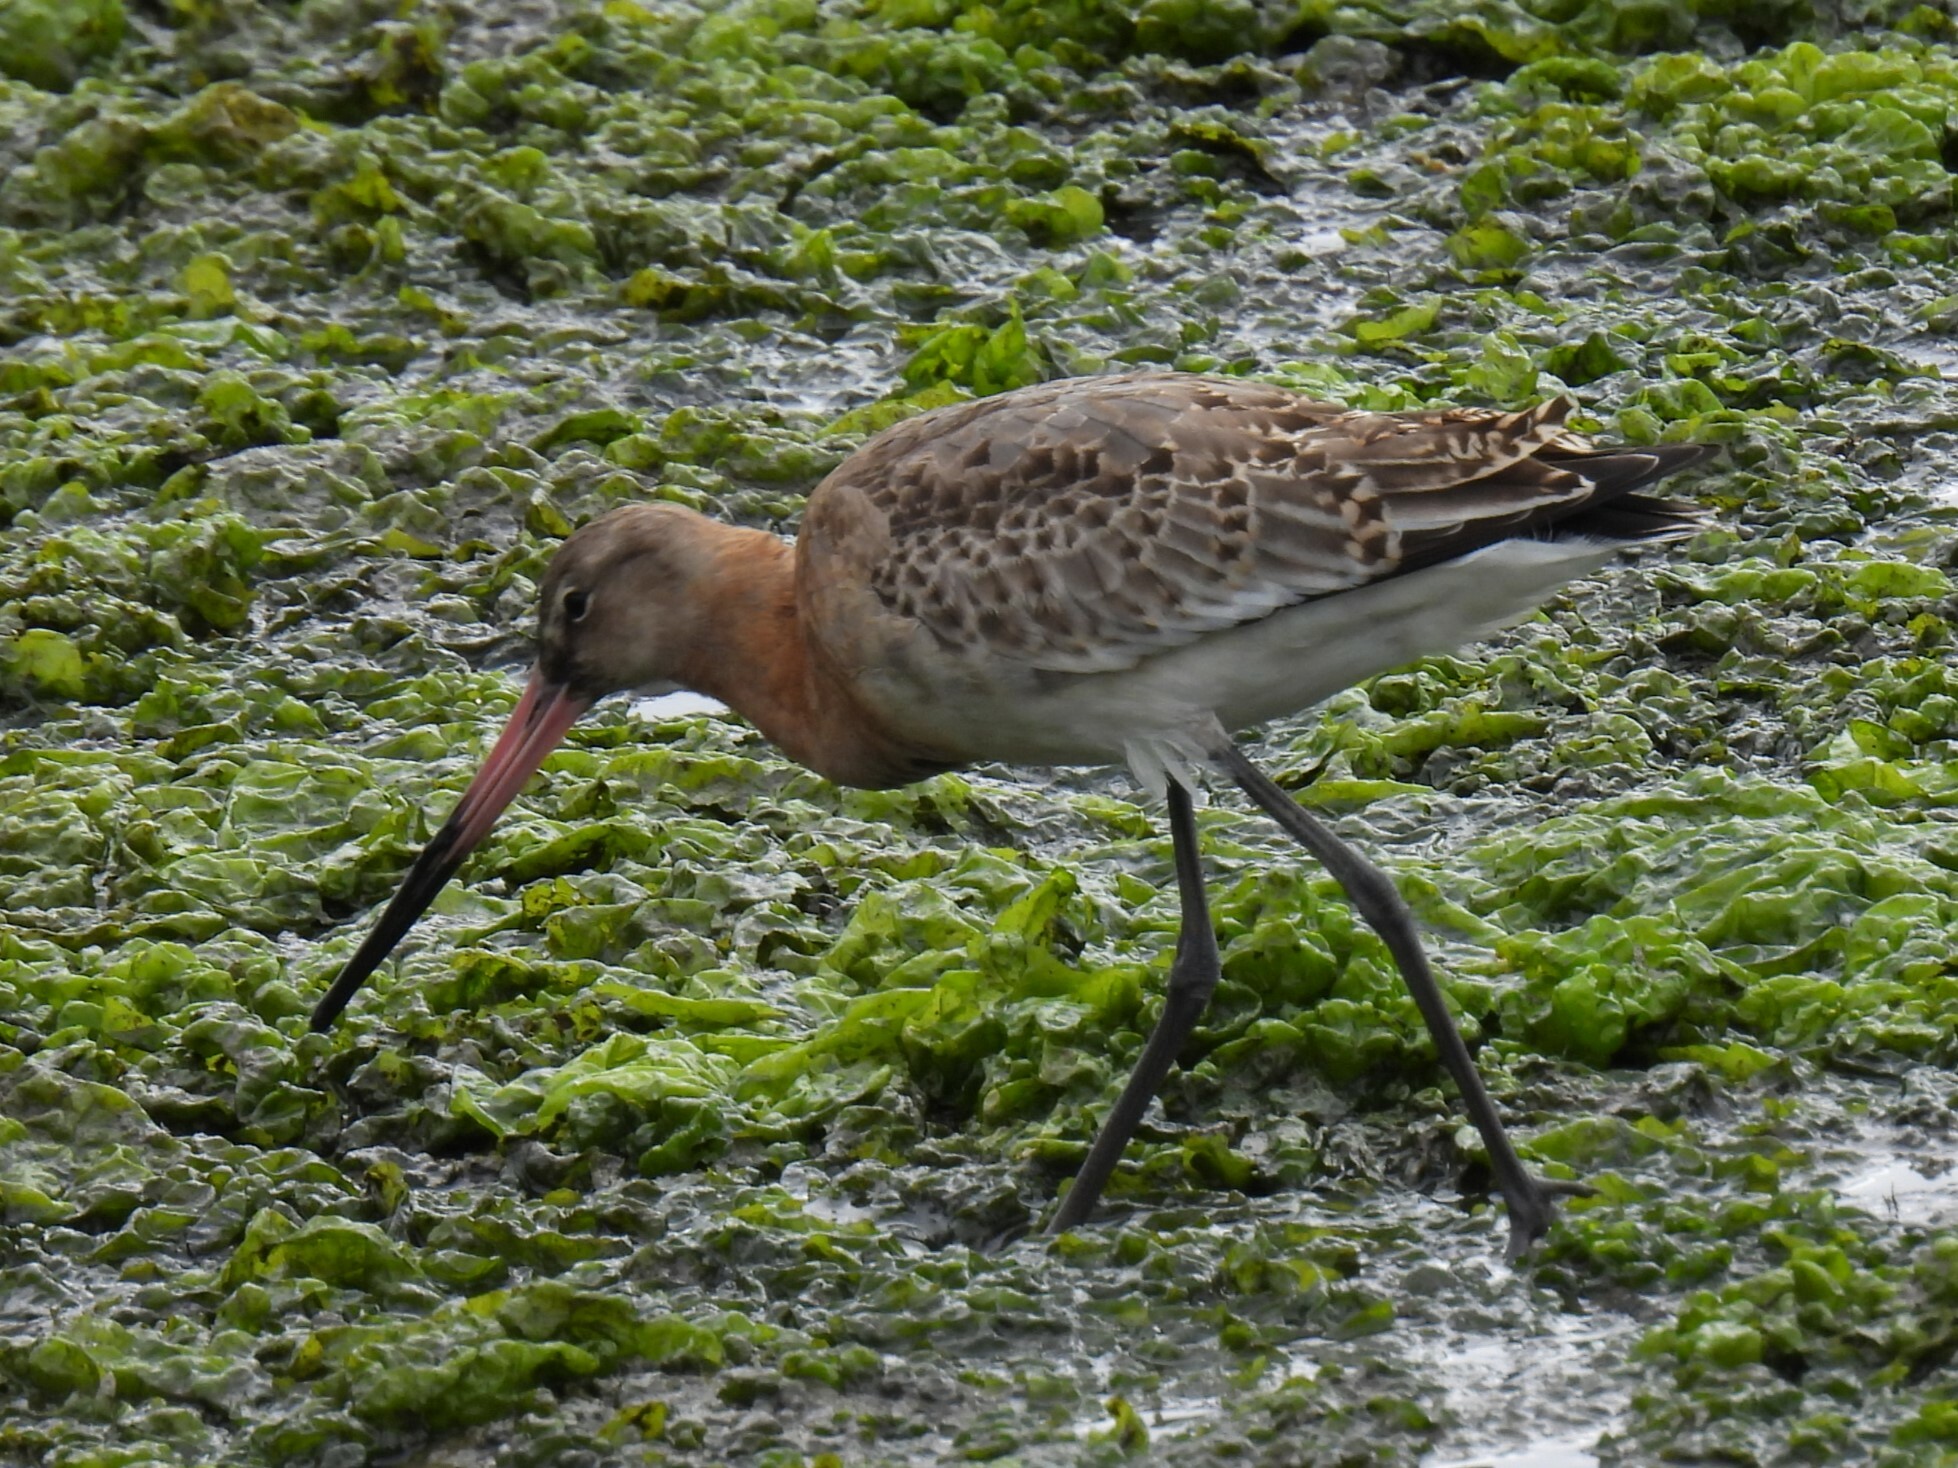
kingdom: Animalia
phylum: Chordata
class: Aves
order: Charadriiformes
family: Scolopacidae
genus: Limosa
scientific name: Limosa limosa
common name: Black-tailed godwit
